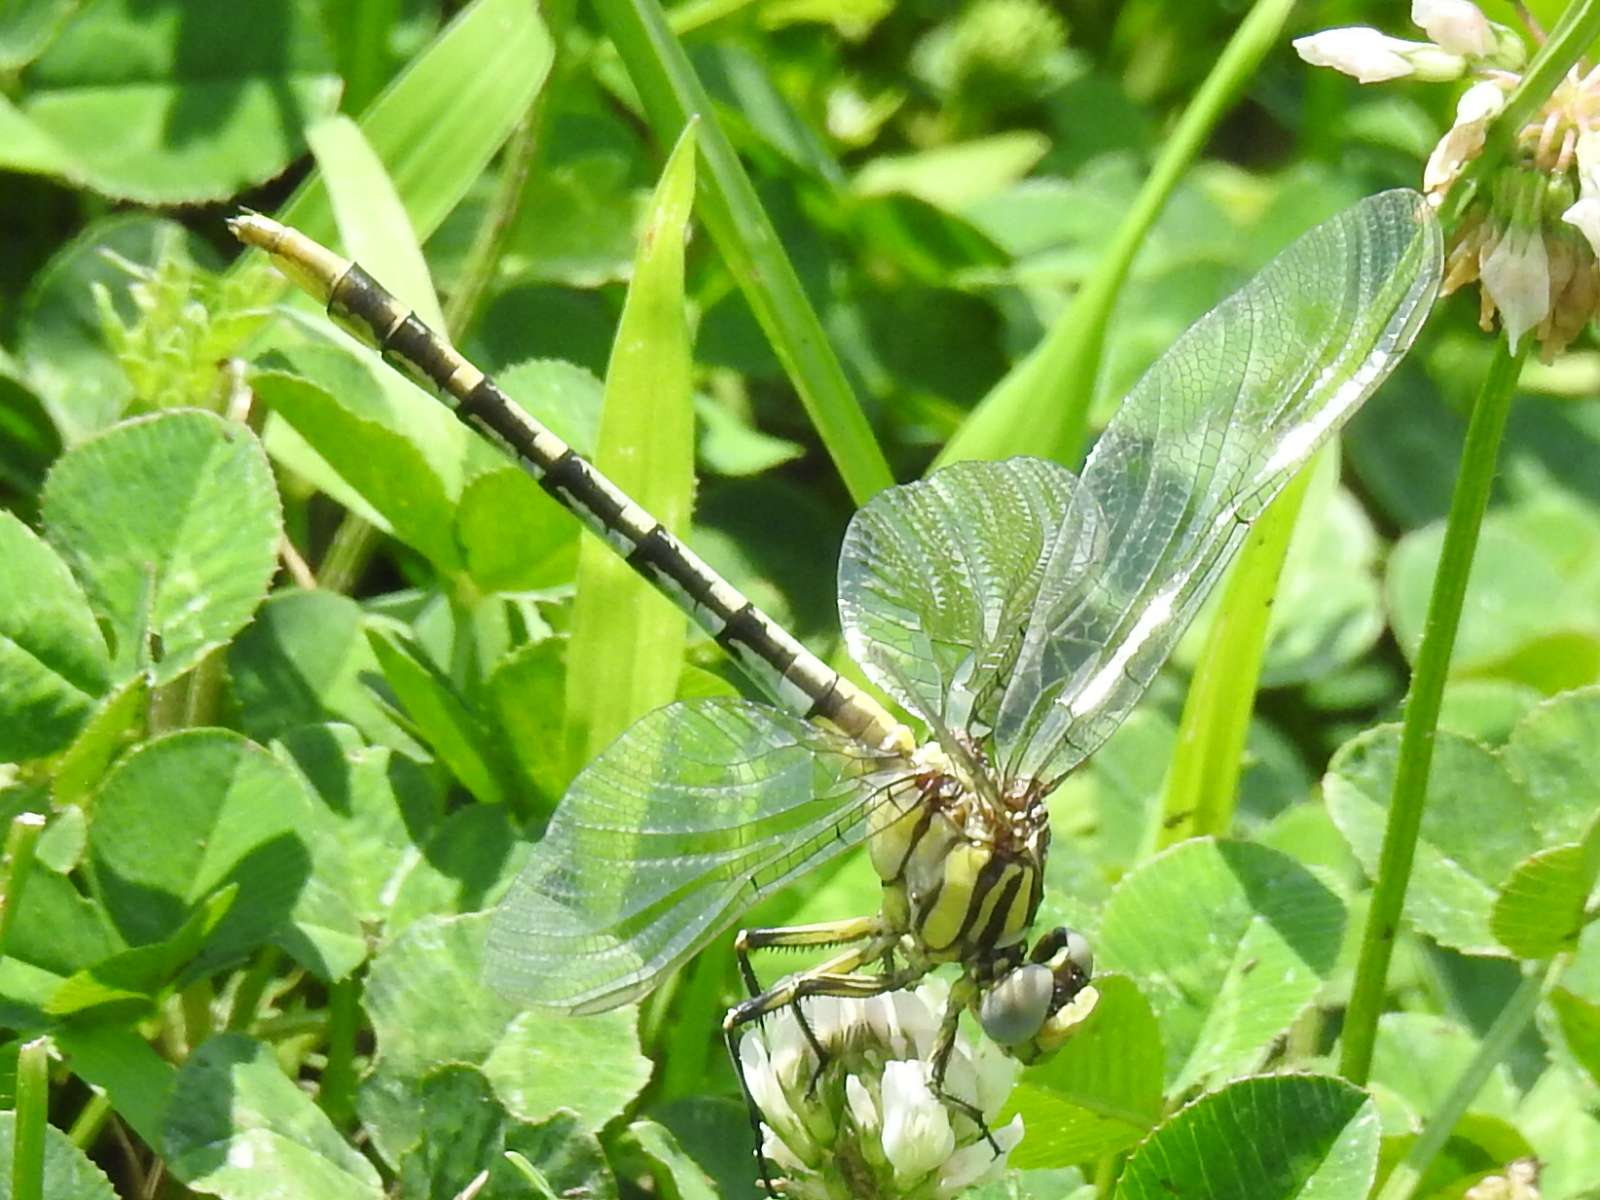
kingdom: Animalia
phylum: Arthropoda
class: Insecta
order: Odonata
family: Gomphidae
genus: Phanogomphus
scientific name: Phanogomphus militaris
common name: Sulphur-tipped clubtail
